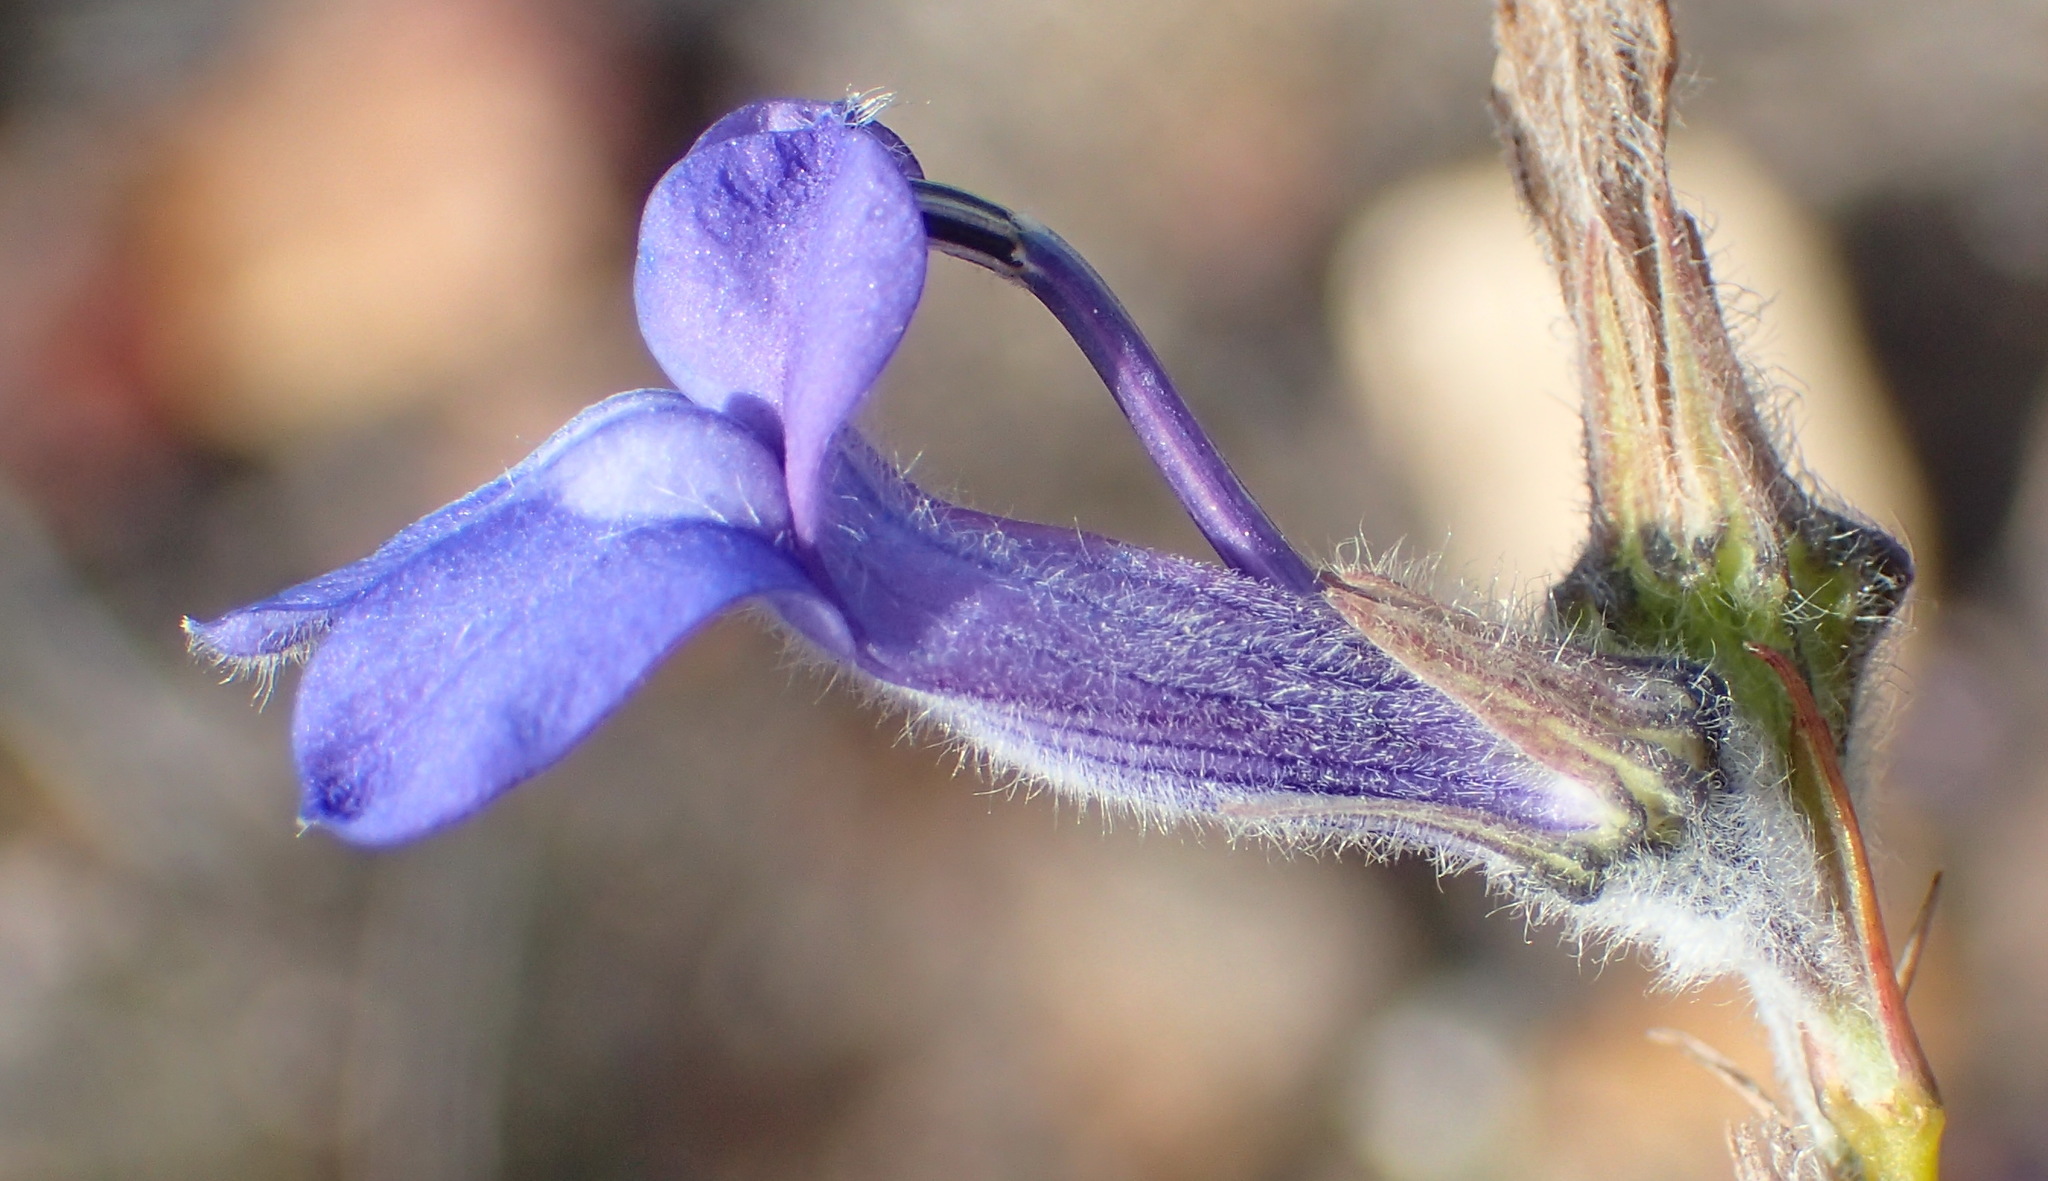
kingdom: Plantae
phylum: Tracheophyta
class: Magnoliopsida
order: Asterales
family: Campanulaceae
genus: Lobelia
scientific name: Lobelia linearis
